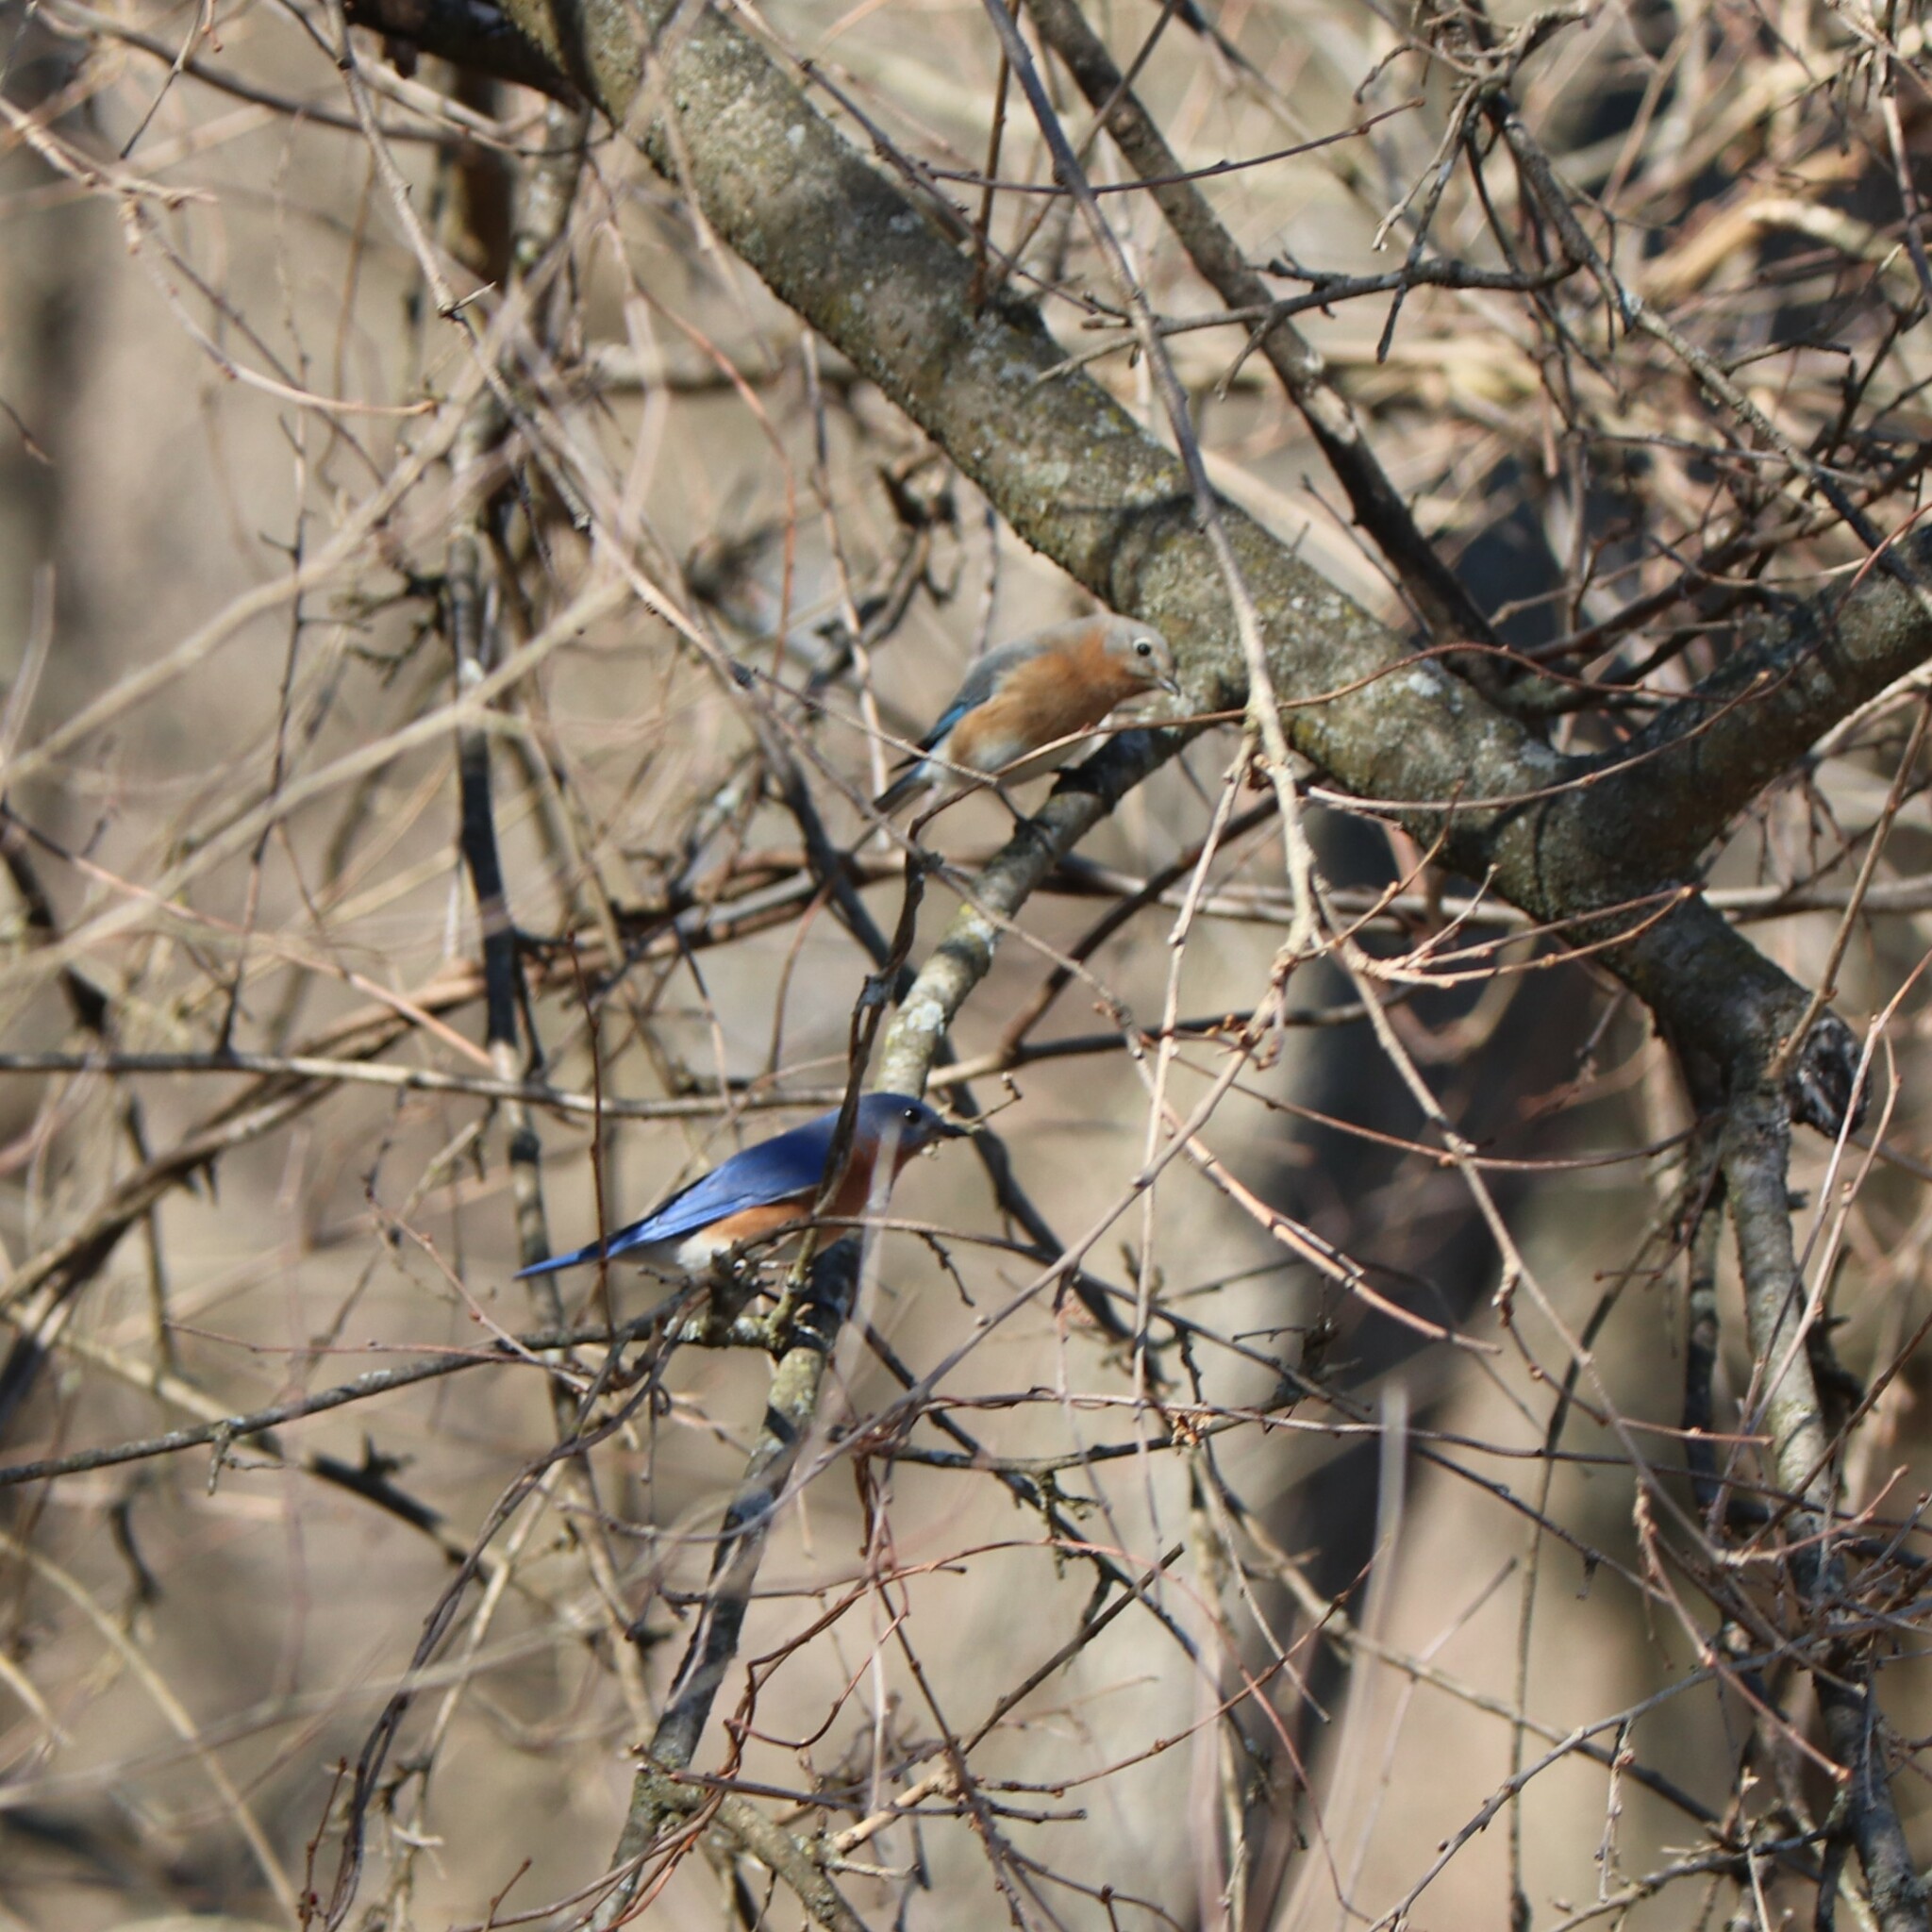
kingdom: Animalia
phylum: Chordata
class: Aves
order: Passeriformes
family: Turdidae
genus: Sialia
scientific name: Sialia sialis
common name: Eastern bluebird
